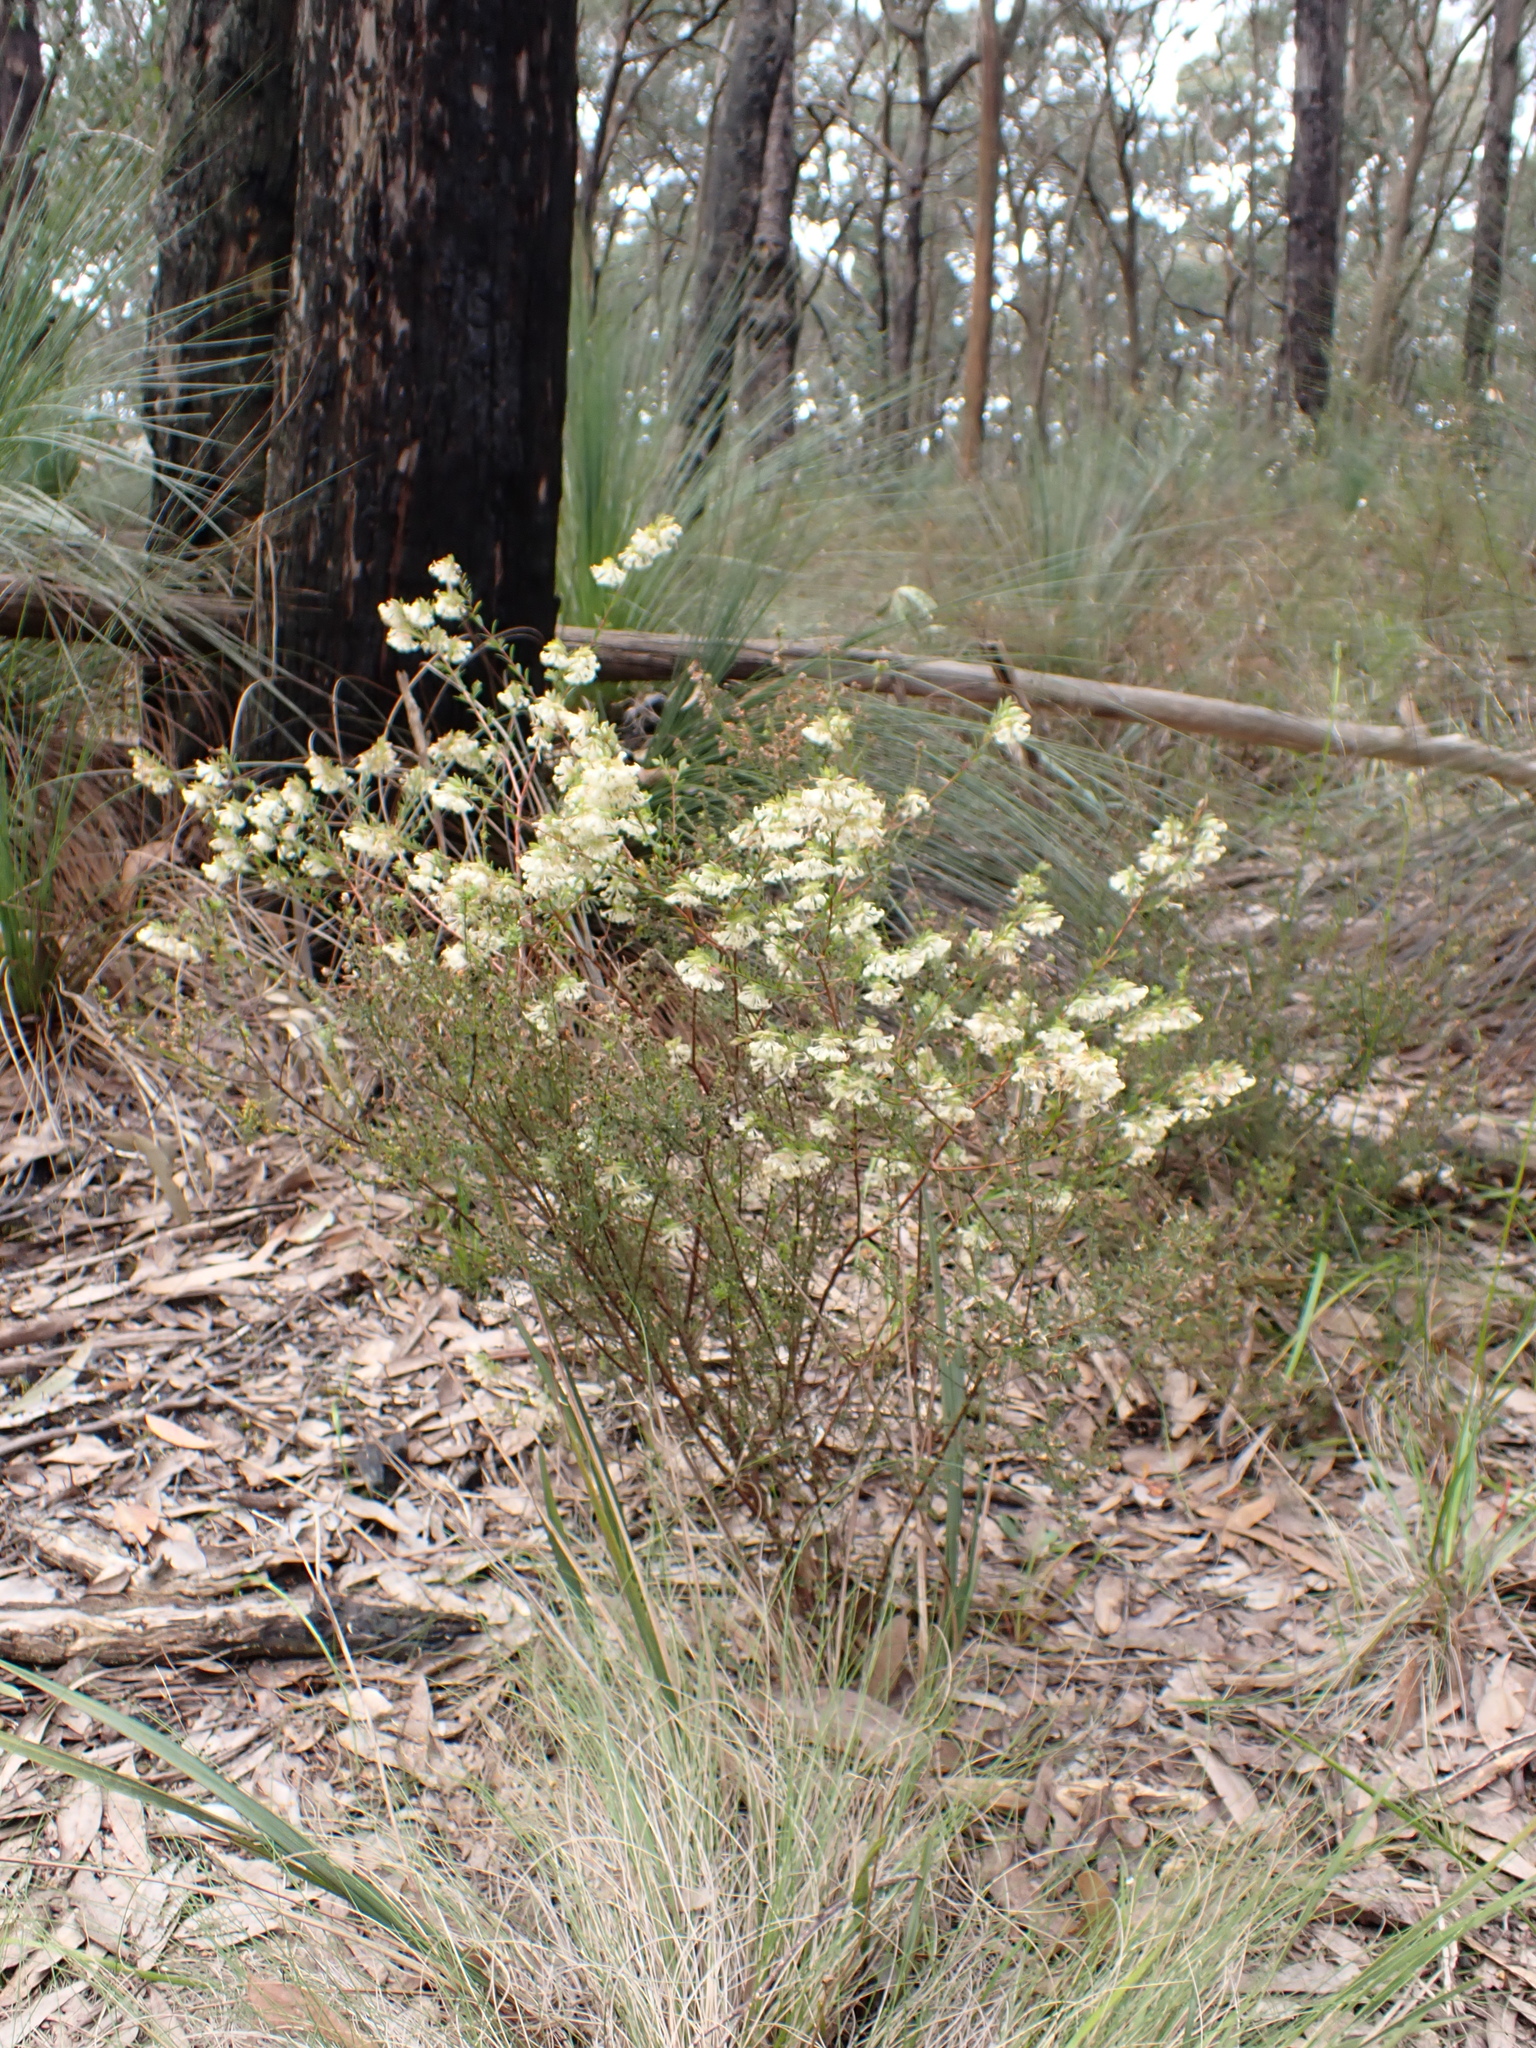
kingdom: Plantae
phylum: Tracheophyta
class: Magnoliopsida
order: Malvales
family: Thymelaeaceae
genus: Pimelea
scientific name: Pimelea linifolia
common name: Queen-of-the-bush
